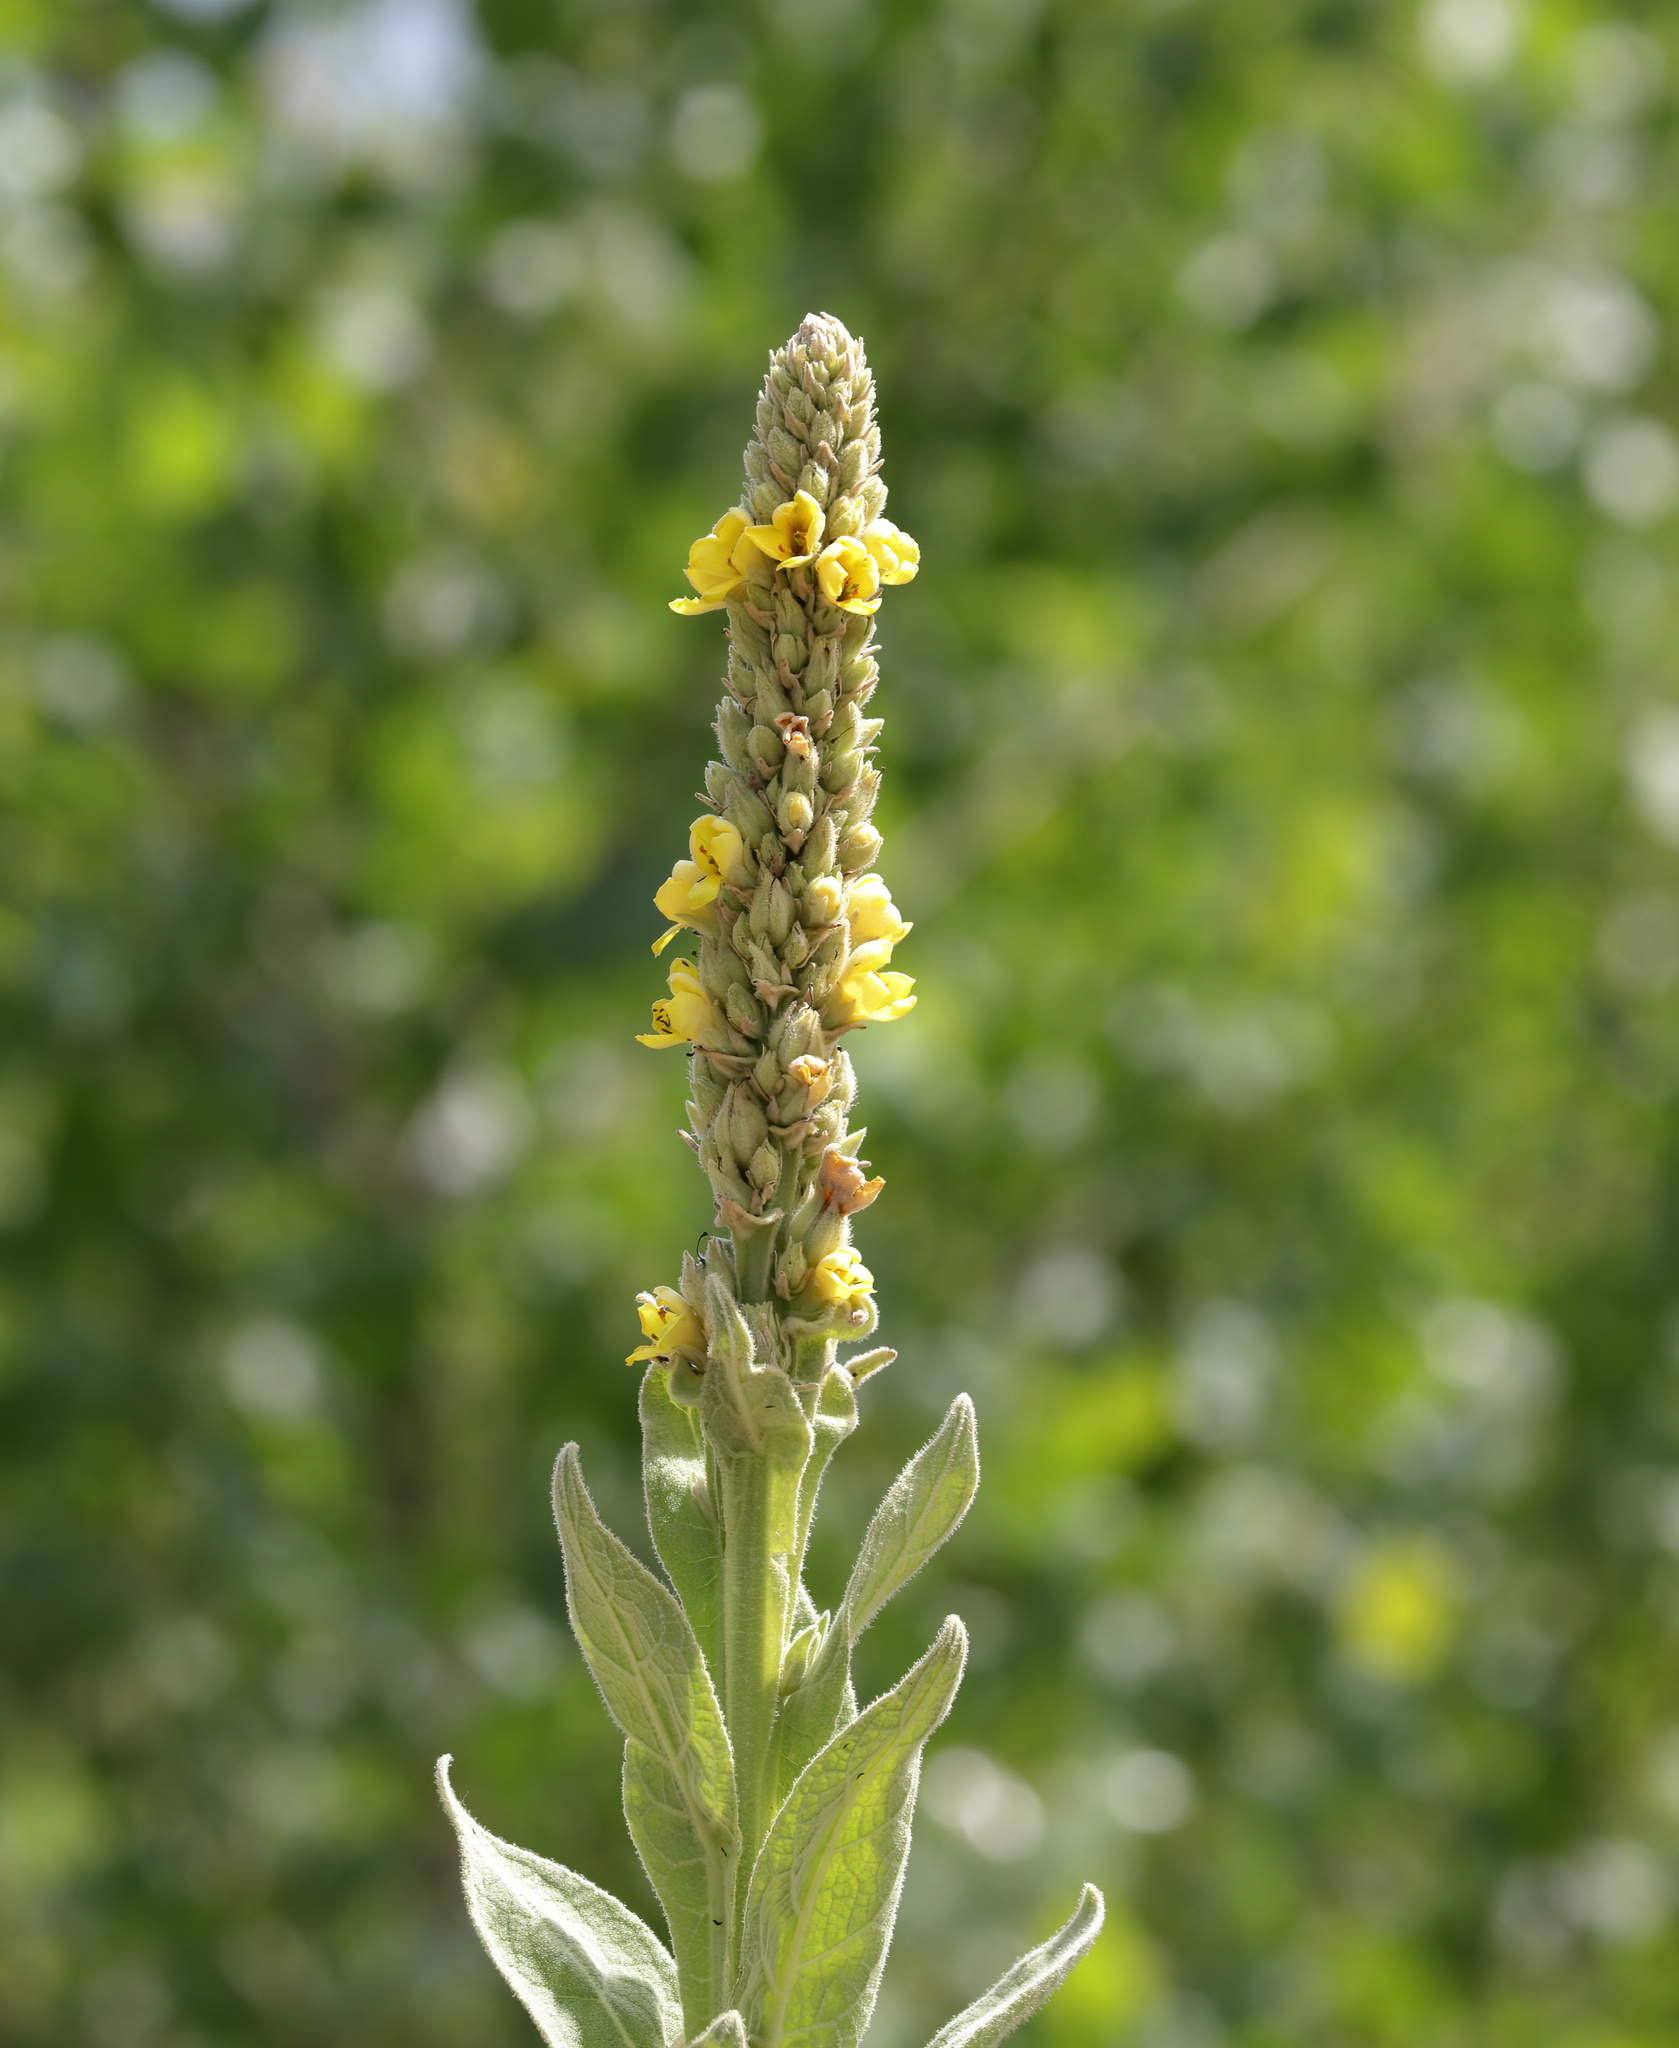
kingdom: Plantae
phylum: Tracheophyta
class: Magnoliopsida
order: Lamiales
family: Scrophulariaceae
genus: Verbascum
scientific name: Verbascum thapsus
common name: Common mullein
